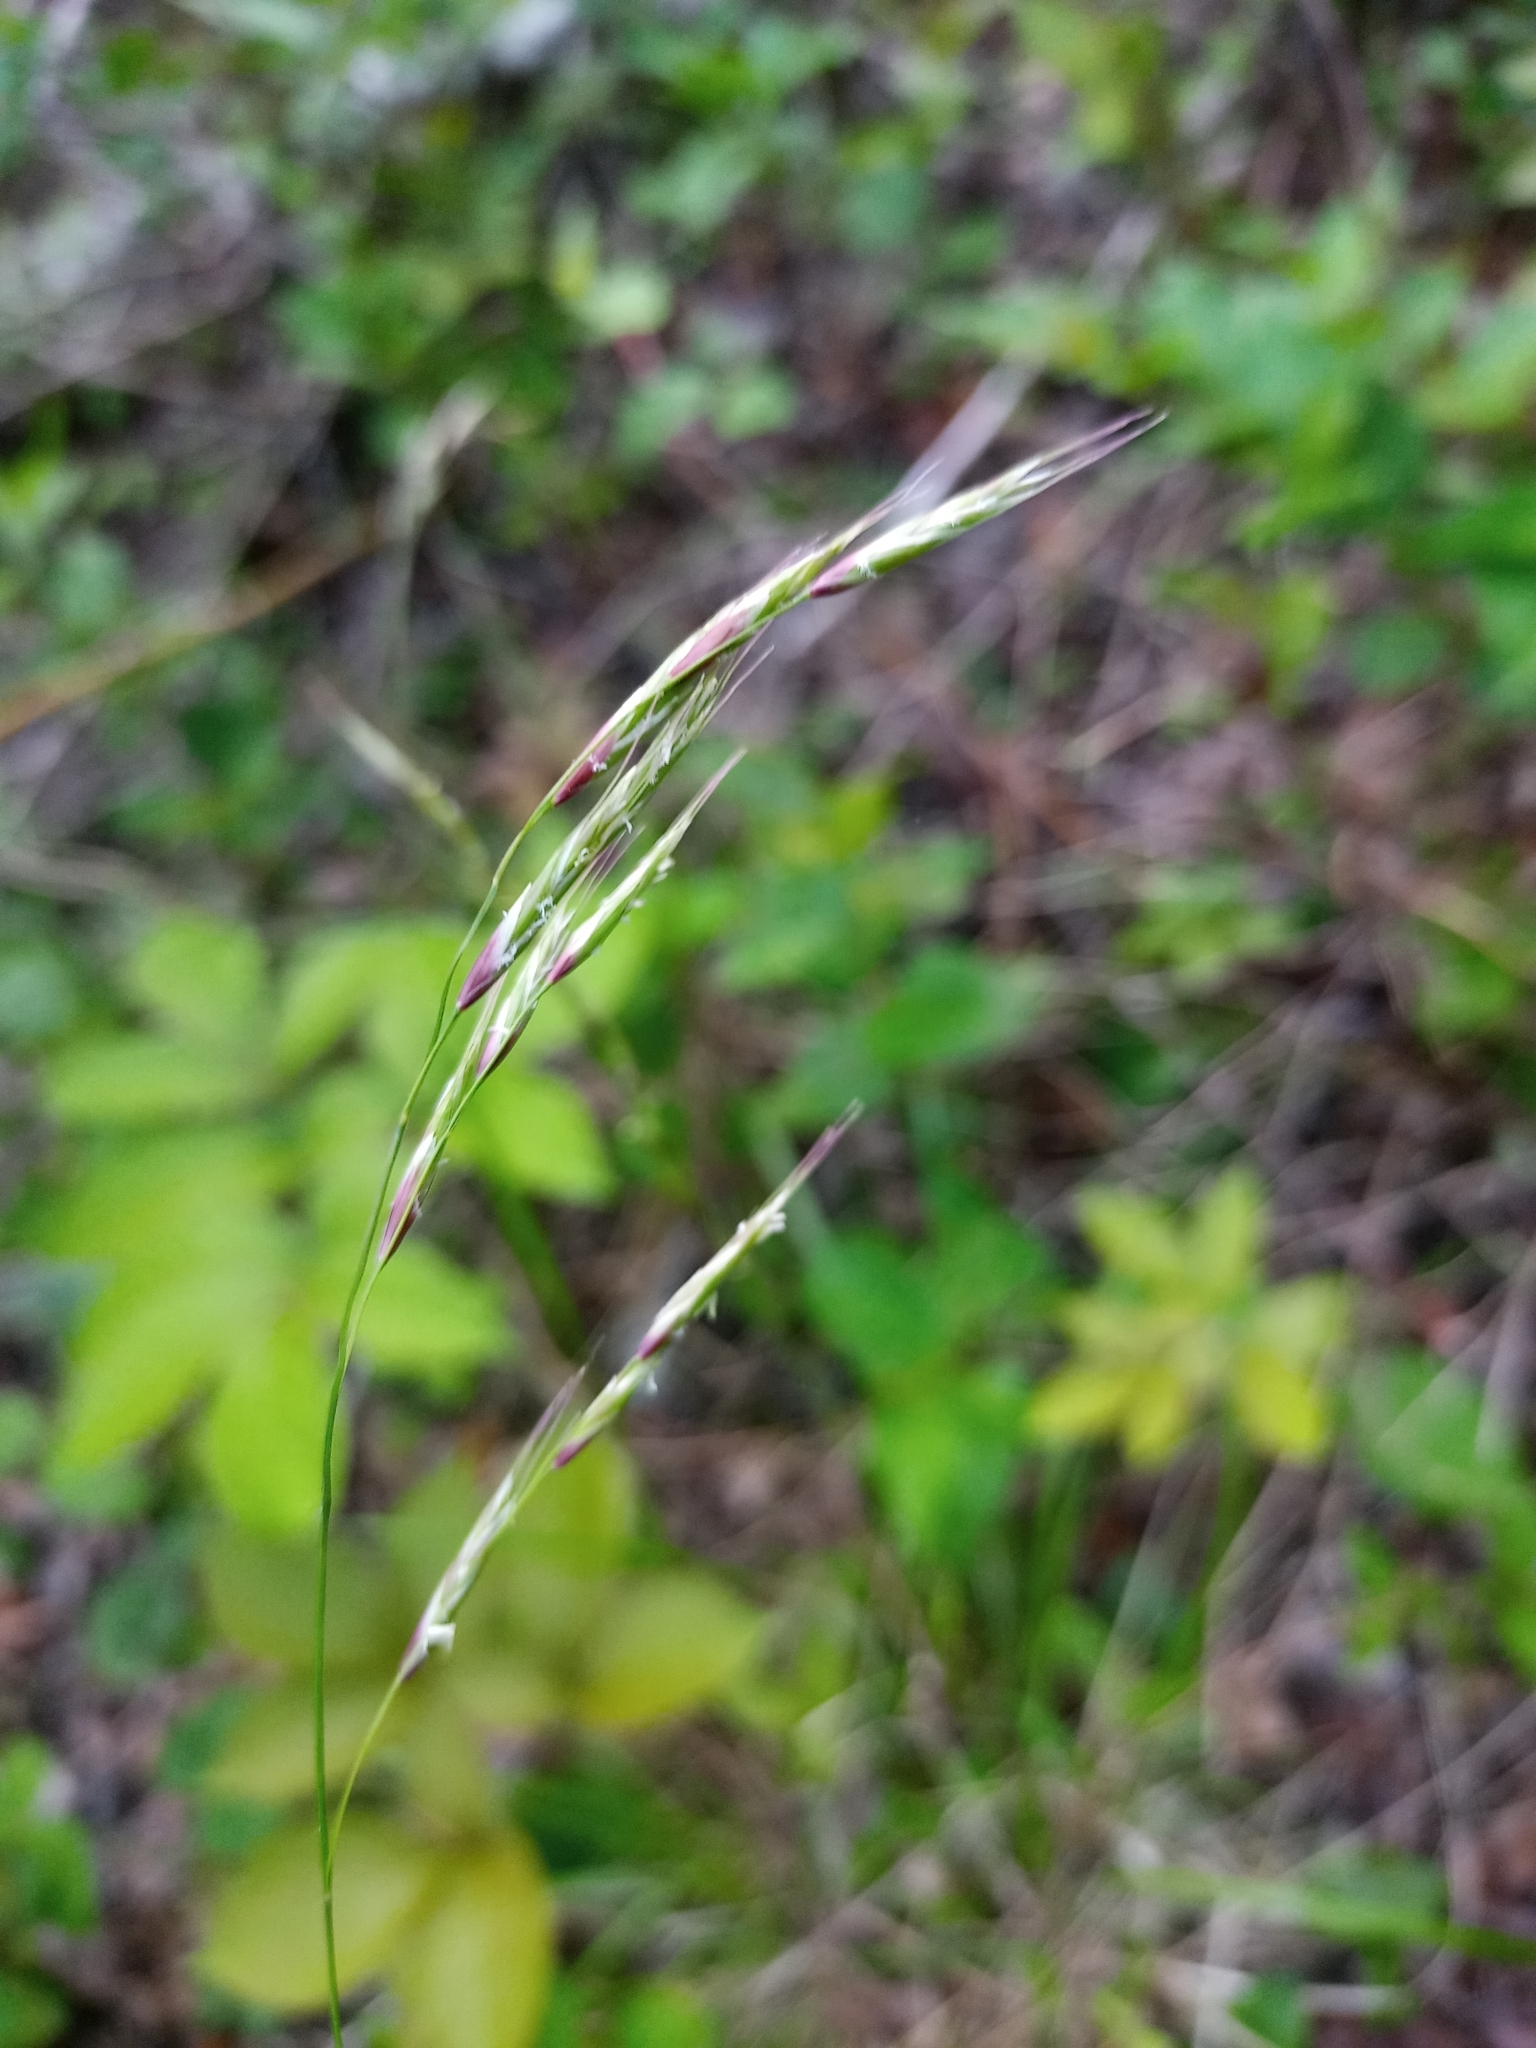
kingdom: Plantae
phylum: Tracheophyta
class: Liliopsida
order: Poales
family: Poaceae
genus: Schizachne
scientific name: Schizachne purpurascens
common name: False melic
